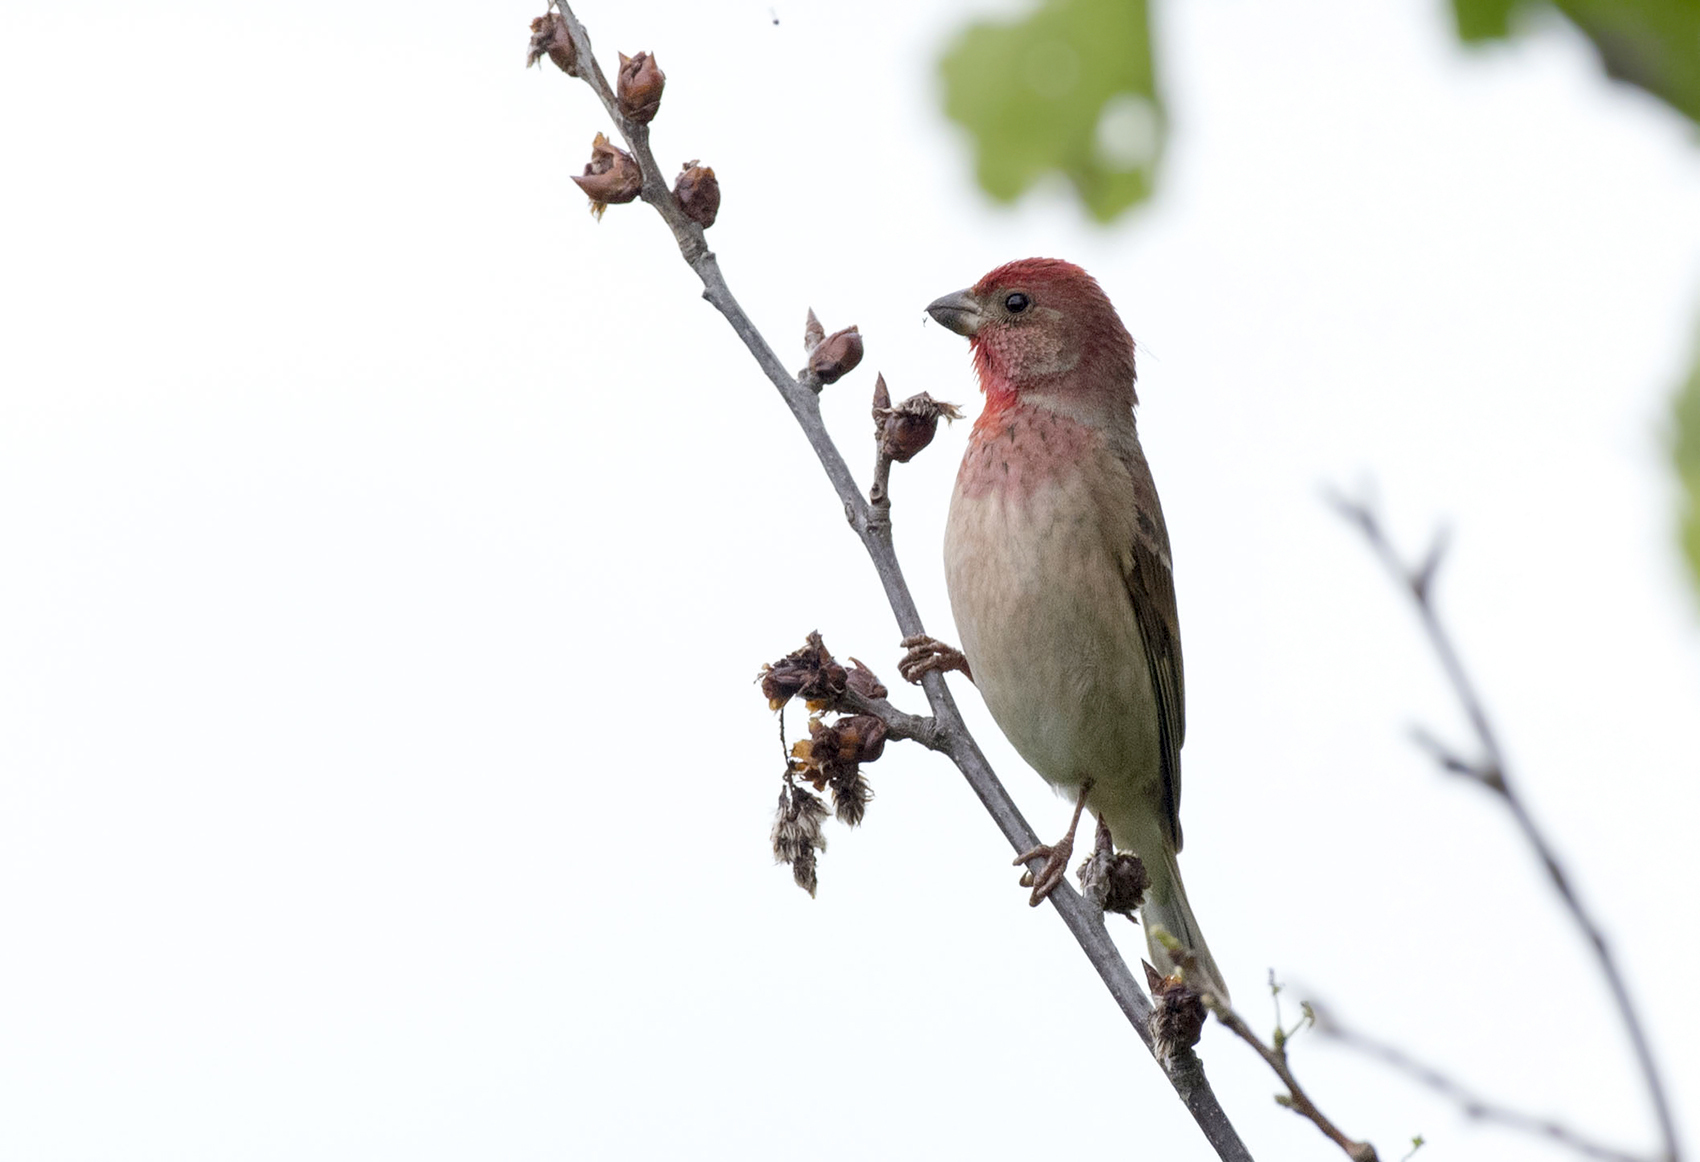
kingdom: Animalia
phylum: Chordata
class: Aves
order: Passeriformes
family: Fringillidae
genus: Carpodacus
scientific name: Carpodacus erythrinus
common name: Common rosefinch
